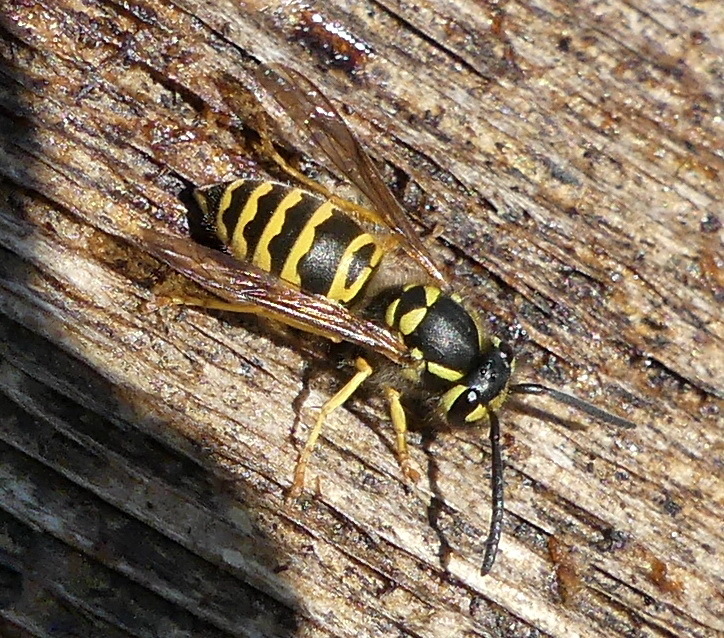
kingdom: Animalia
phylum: Arthropoda
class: Insecta
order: Hymenoptera
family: Vespidae
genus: Vespula
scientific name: Vespula maculifrons
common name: Eastern yellowjacket
